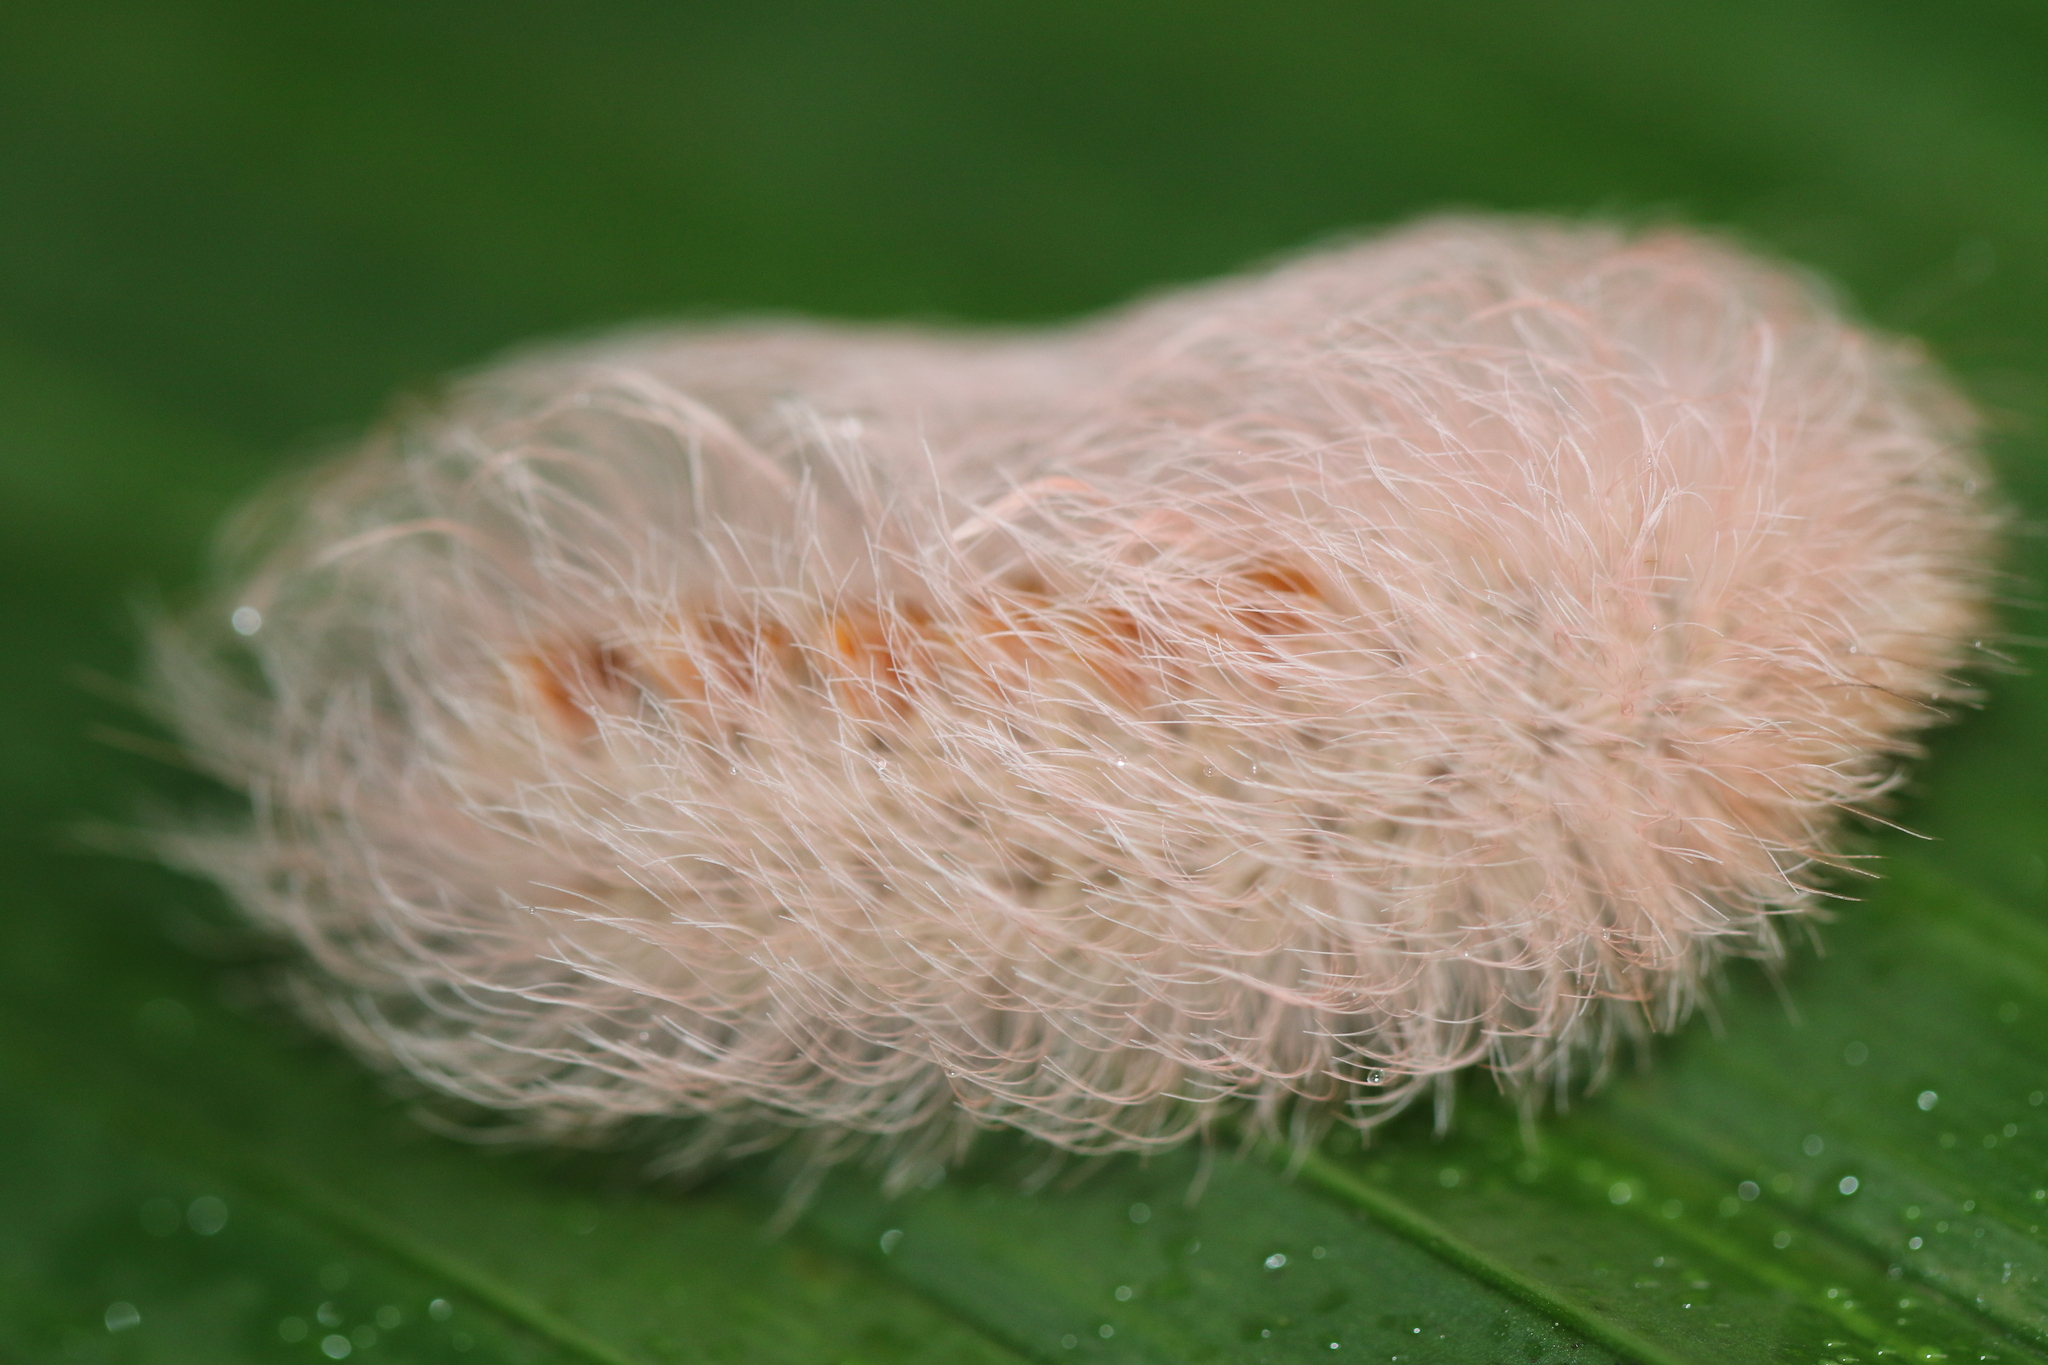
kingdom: Animalia
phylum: Arthropoda
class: Insecta
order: Lepidoptera
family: Megalopygidae
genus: Megalopyge
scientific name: Megalopyge basalis
